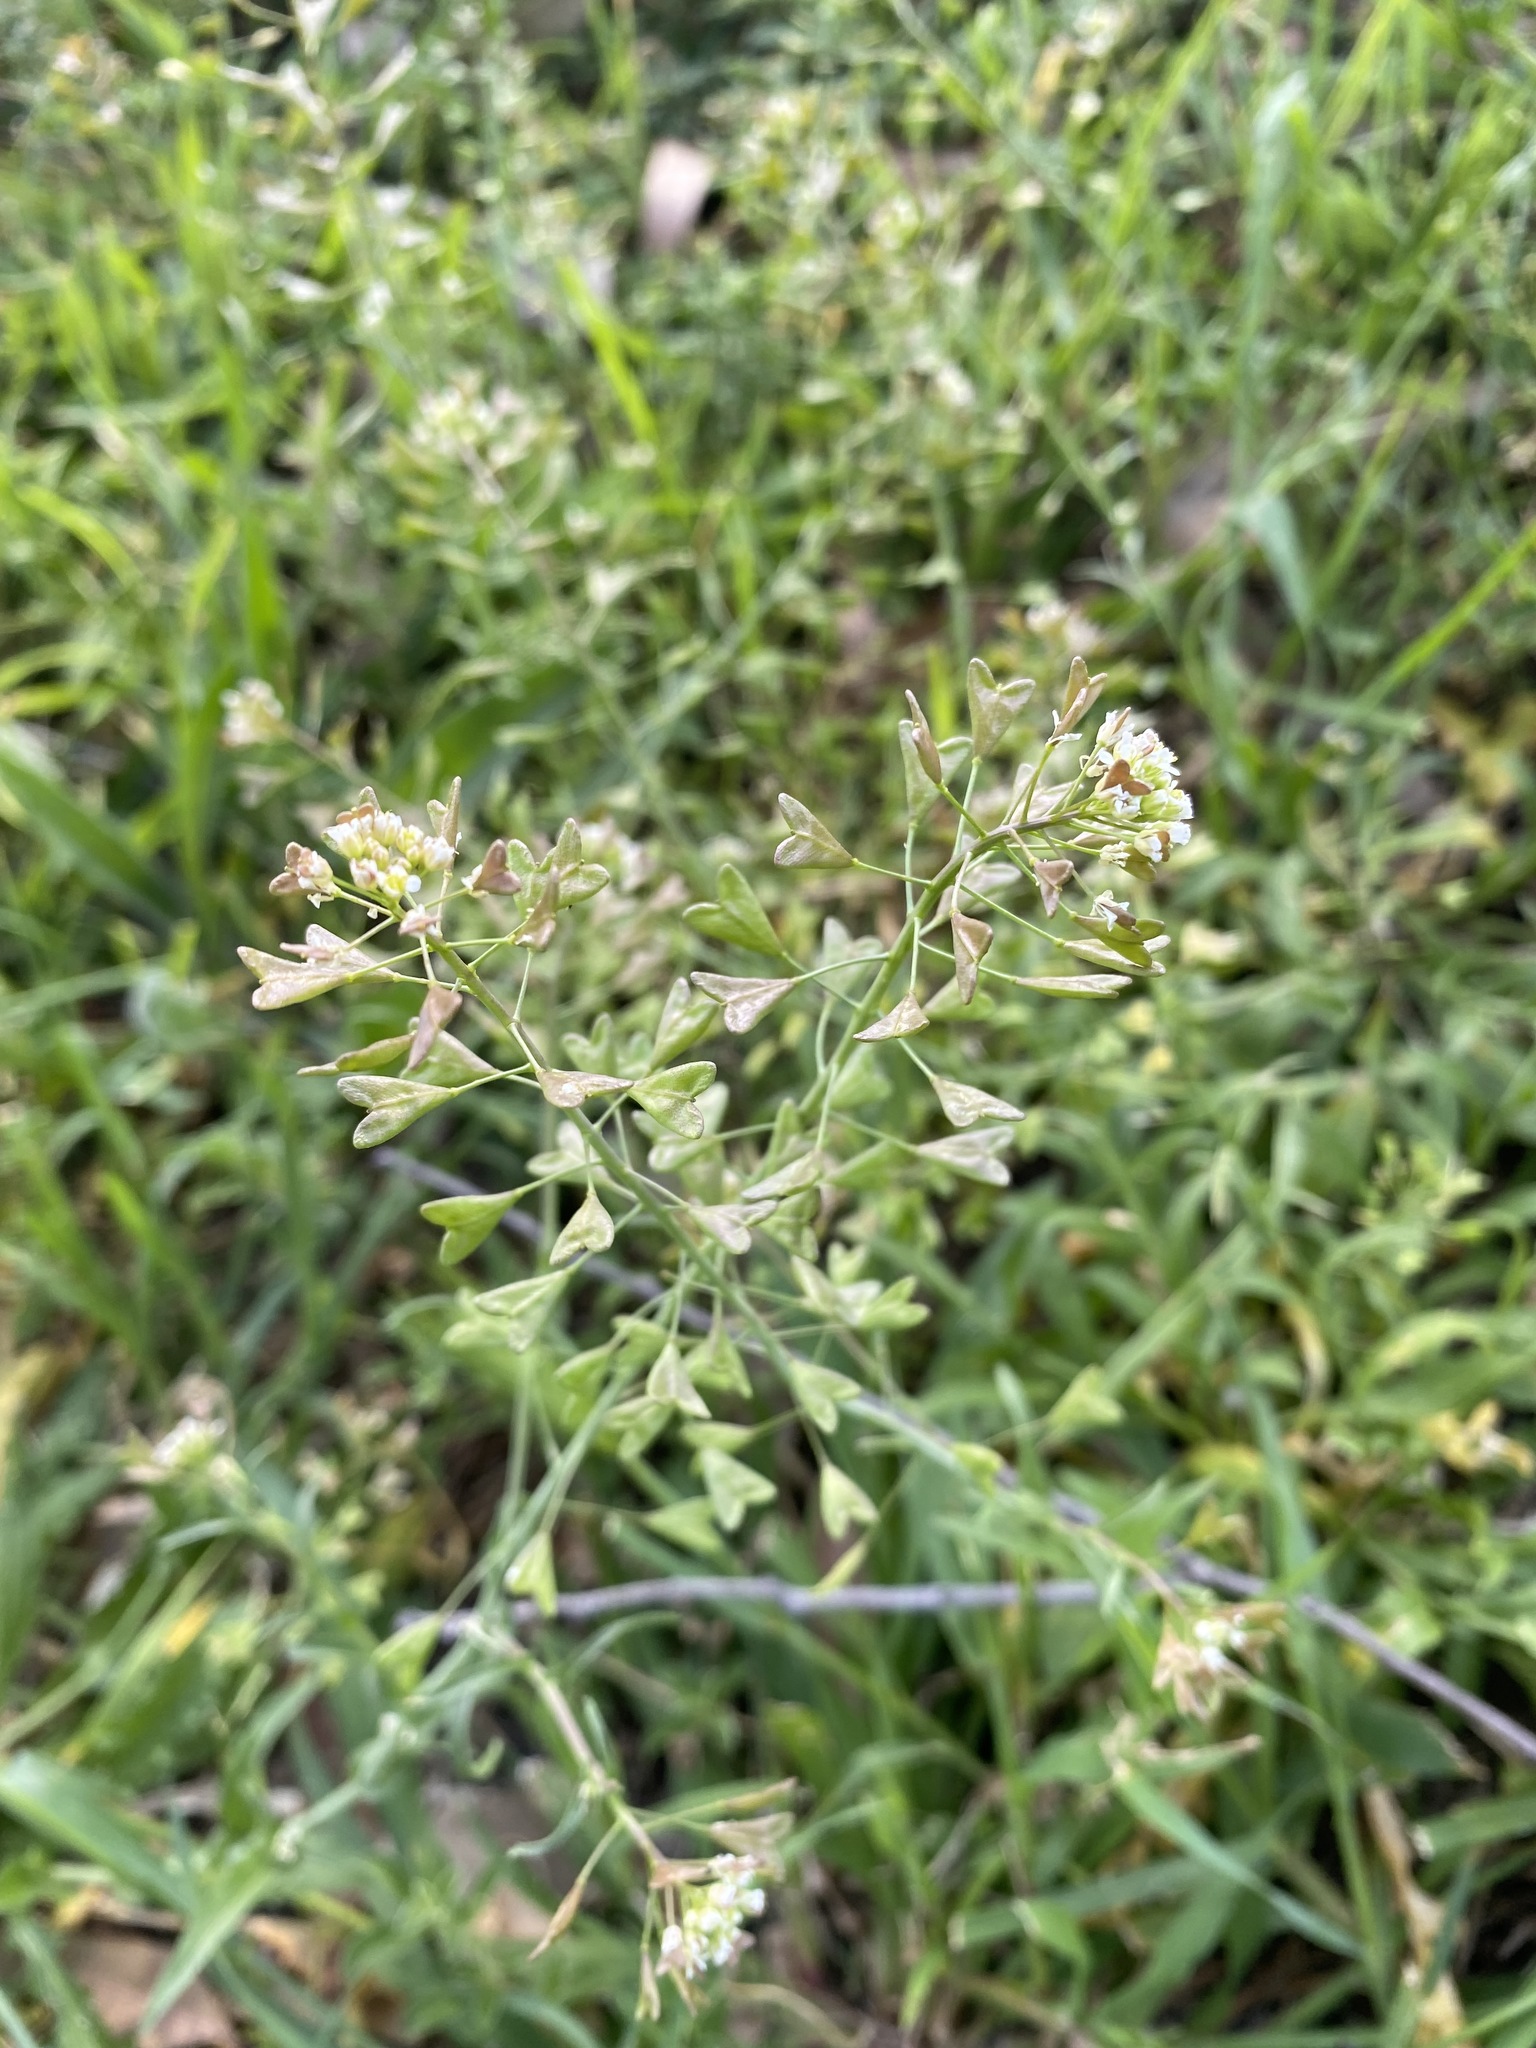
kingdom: Plantae
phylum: Tracheophyta
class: Magnoliopsida
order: Brassicales
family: Brassicaceae
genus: Capsella
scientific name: Capsella bursa-pastoris
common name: Shepherd's purse
